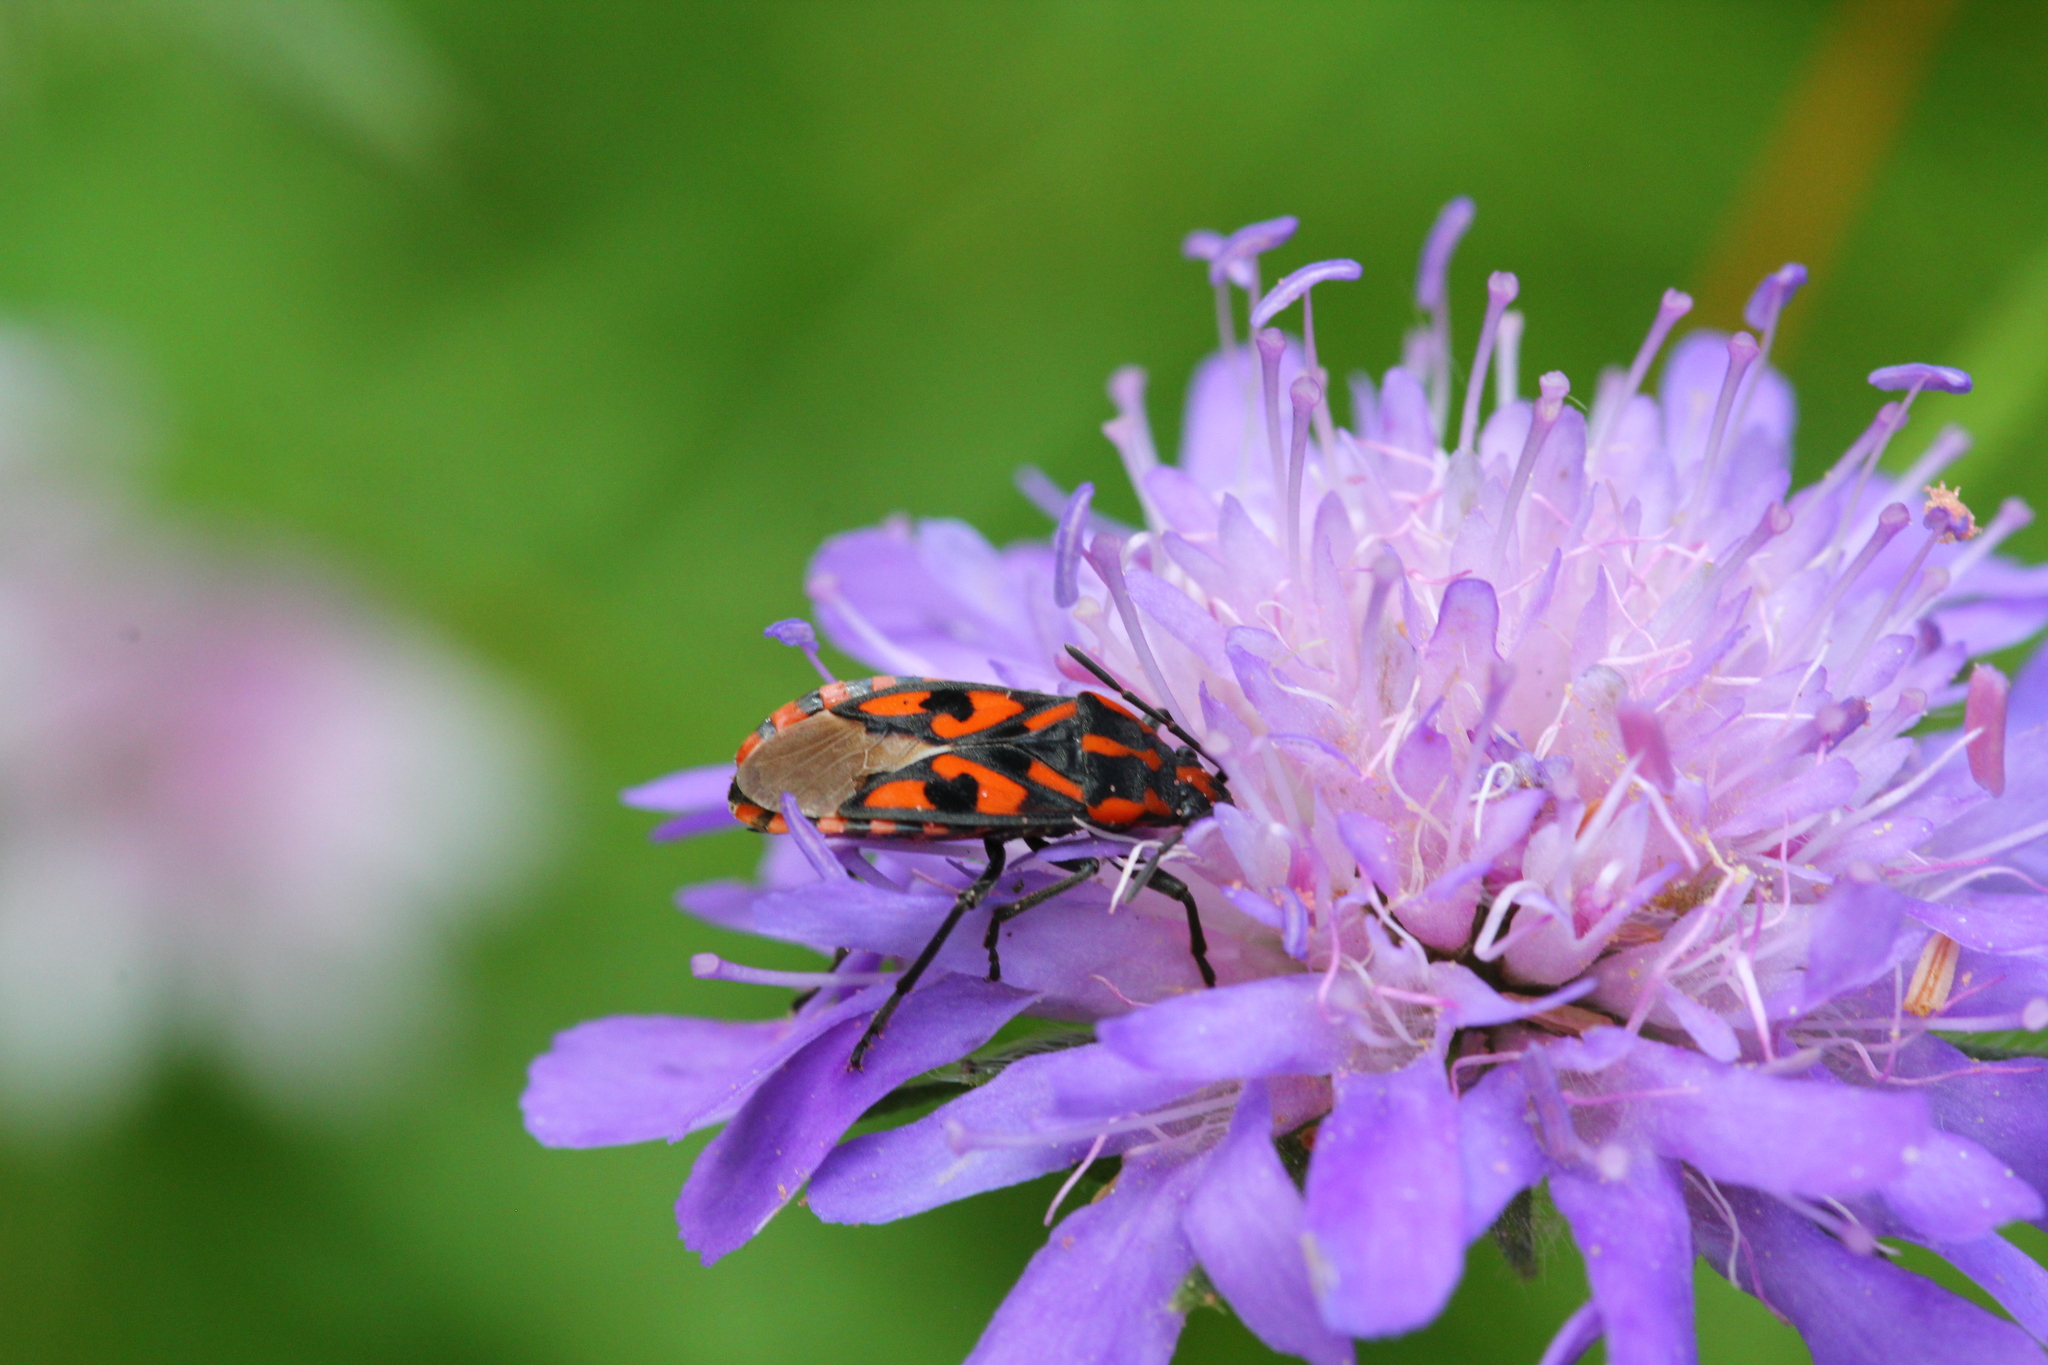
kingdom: Animalia
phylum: Arthropoda
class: Insecta
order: Hemiptera
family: Lygaeidae
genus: Spilostethus
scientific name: Spilostethus saxatilis
